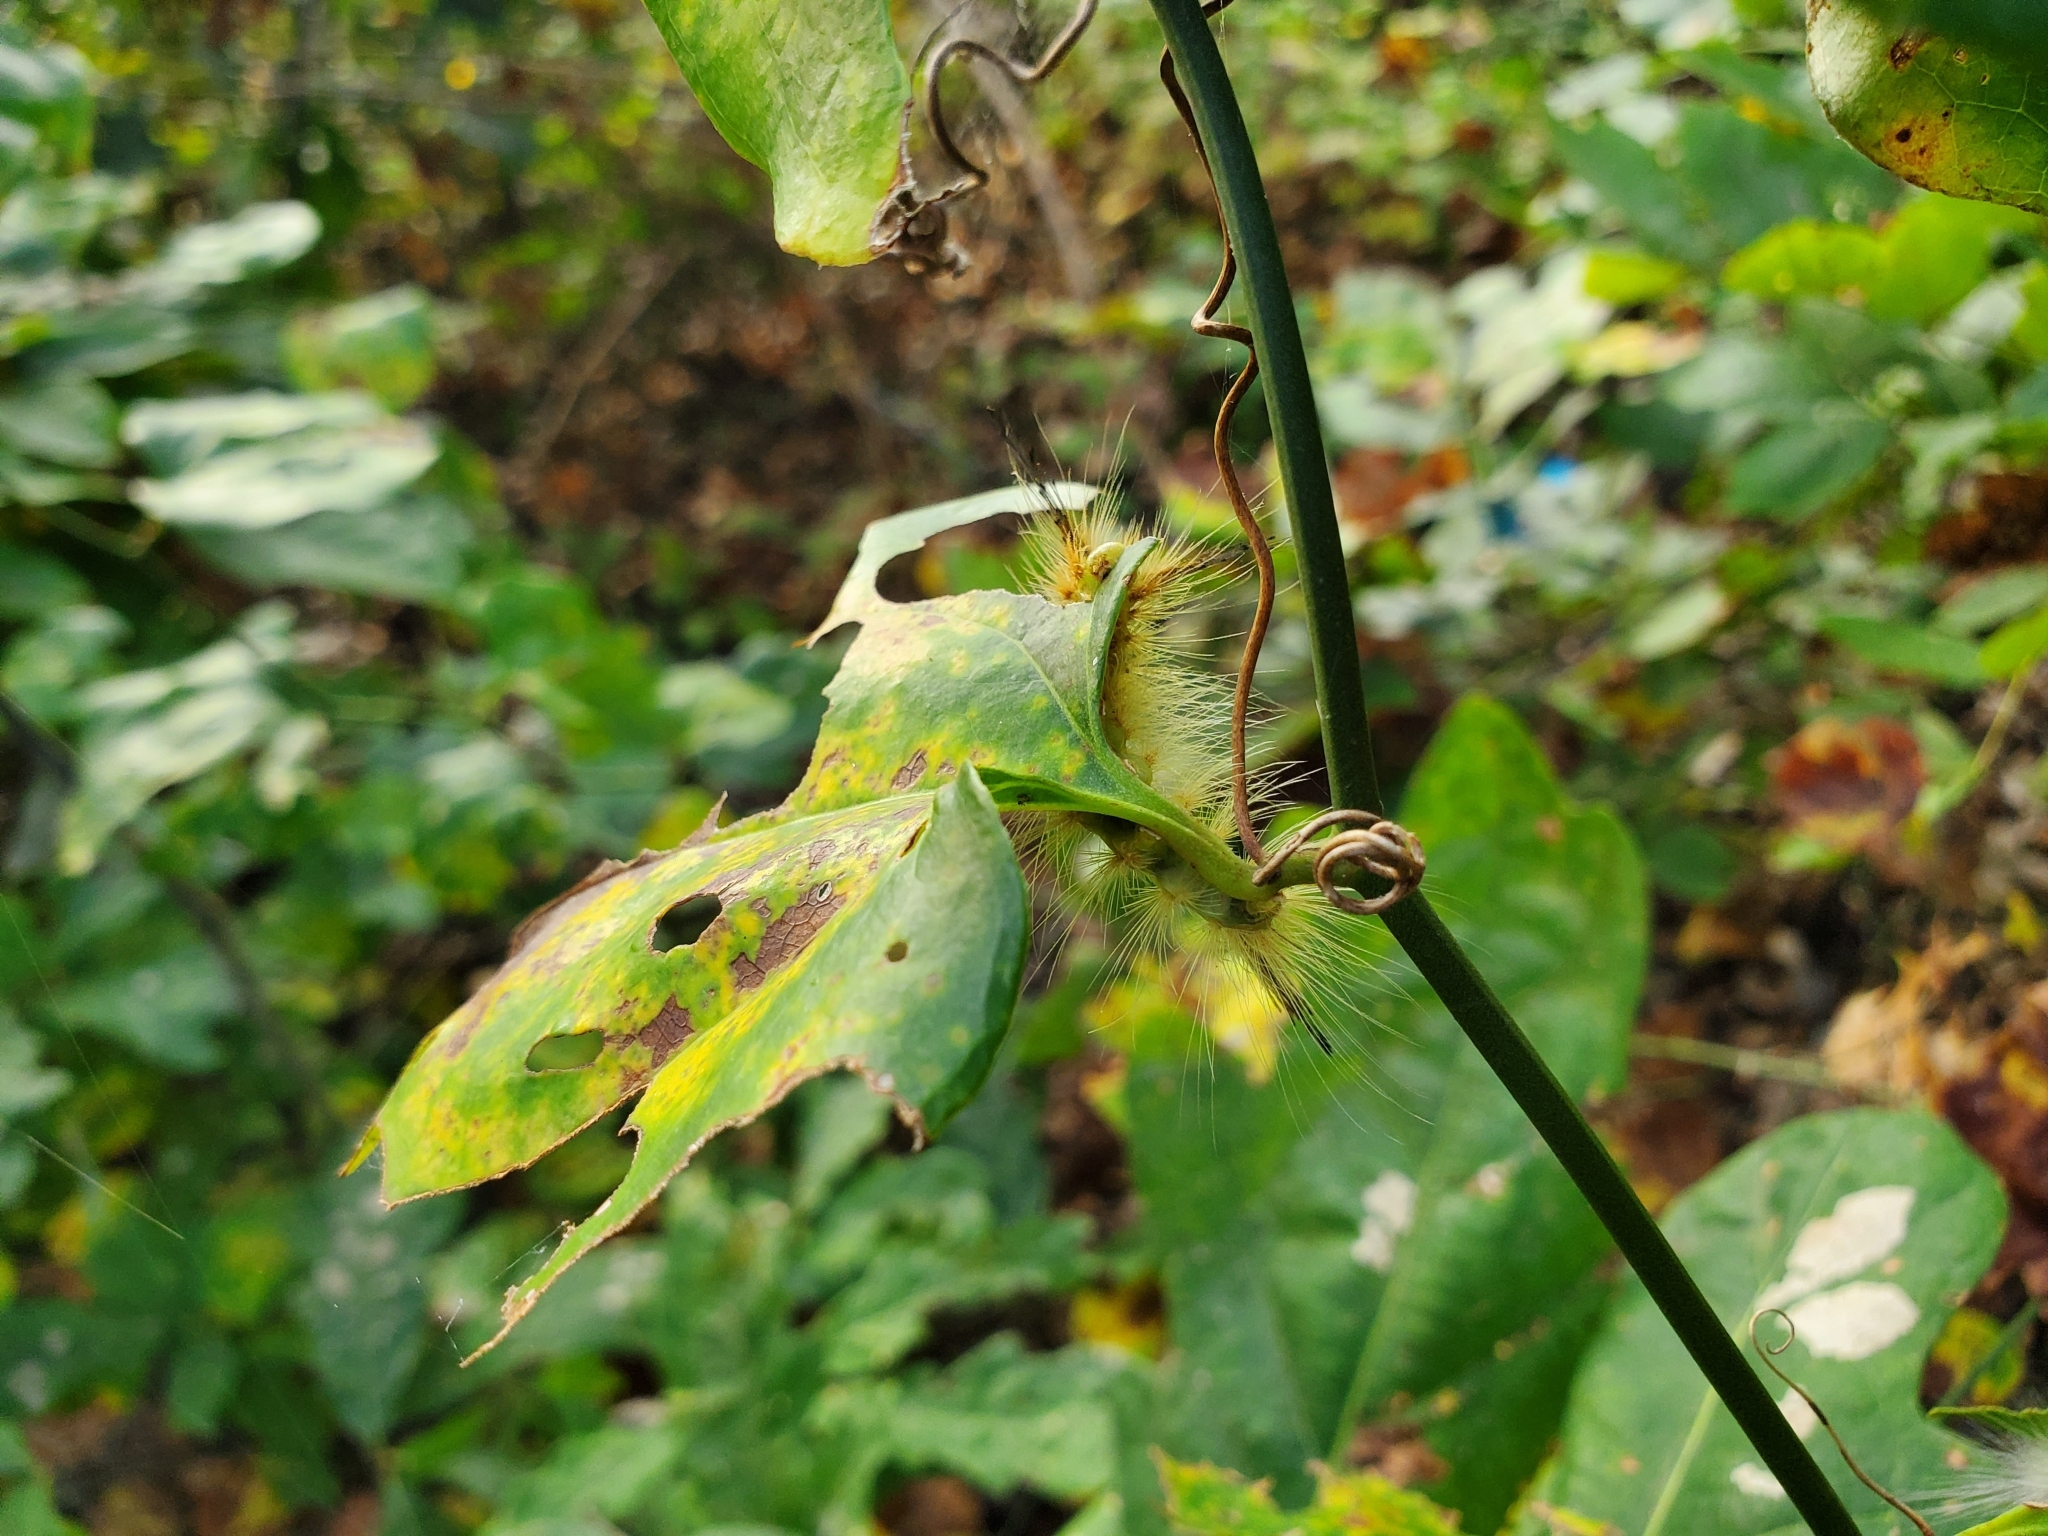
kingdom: Animalia
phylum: Arthropoda
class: Insecta
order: Lepidoptera
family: Erebidae
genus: Orgyia
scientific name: Orgyia definita
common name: Definite tussock moth
